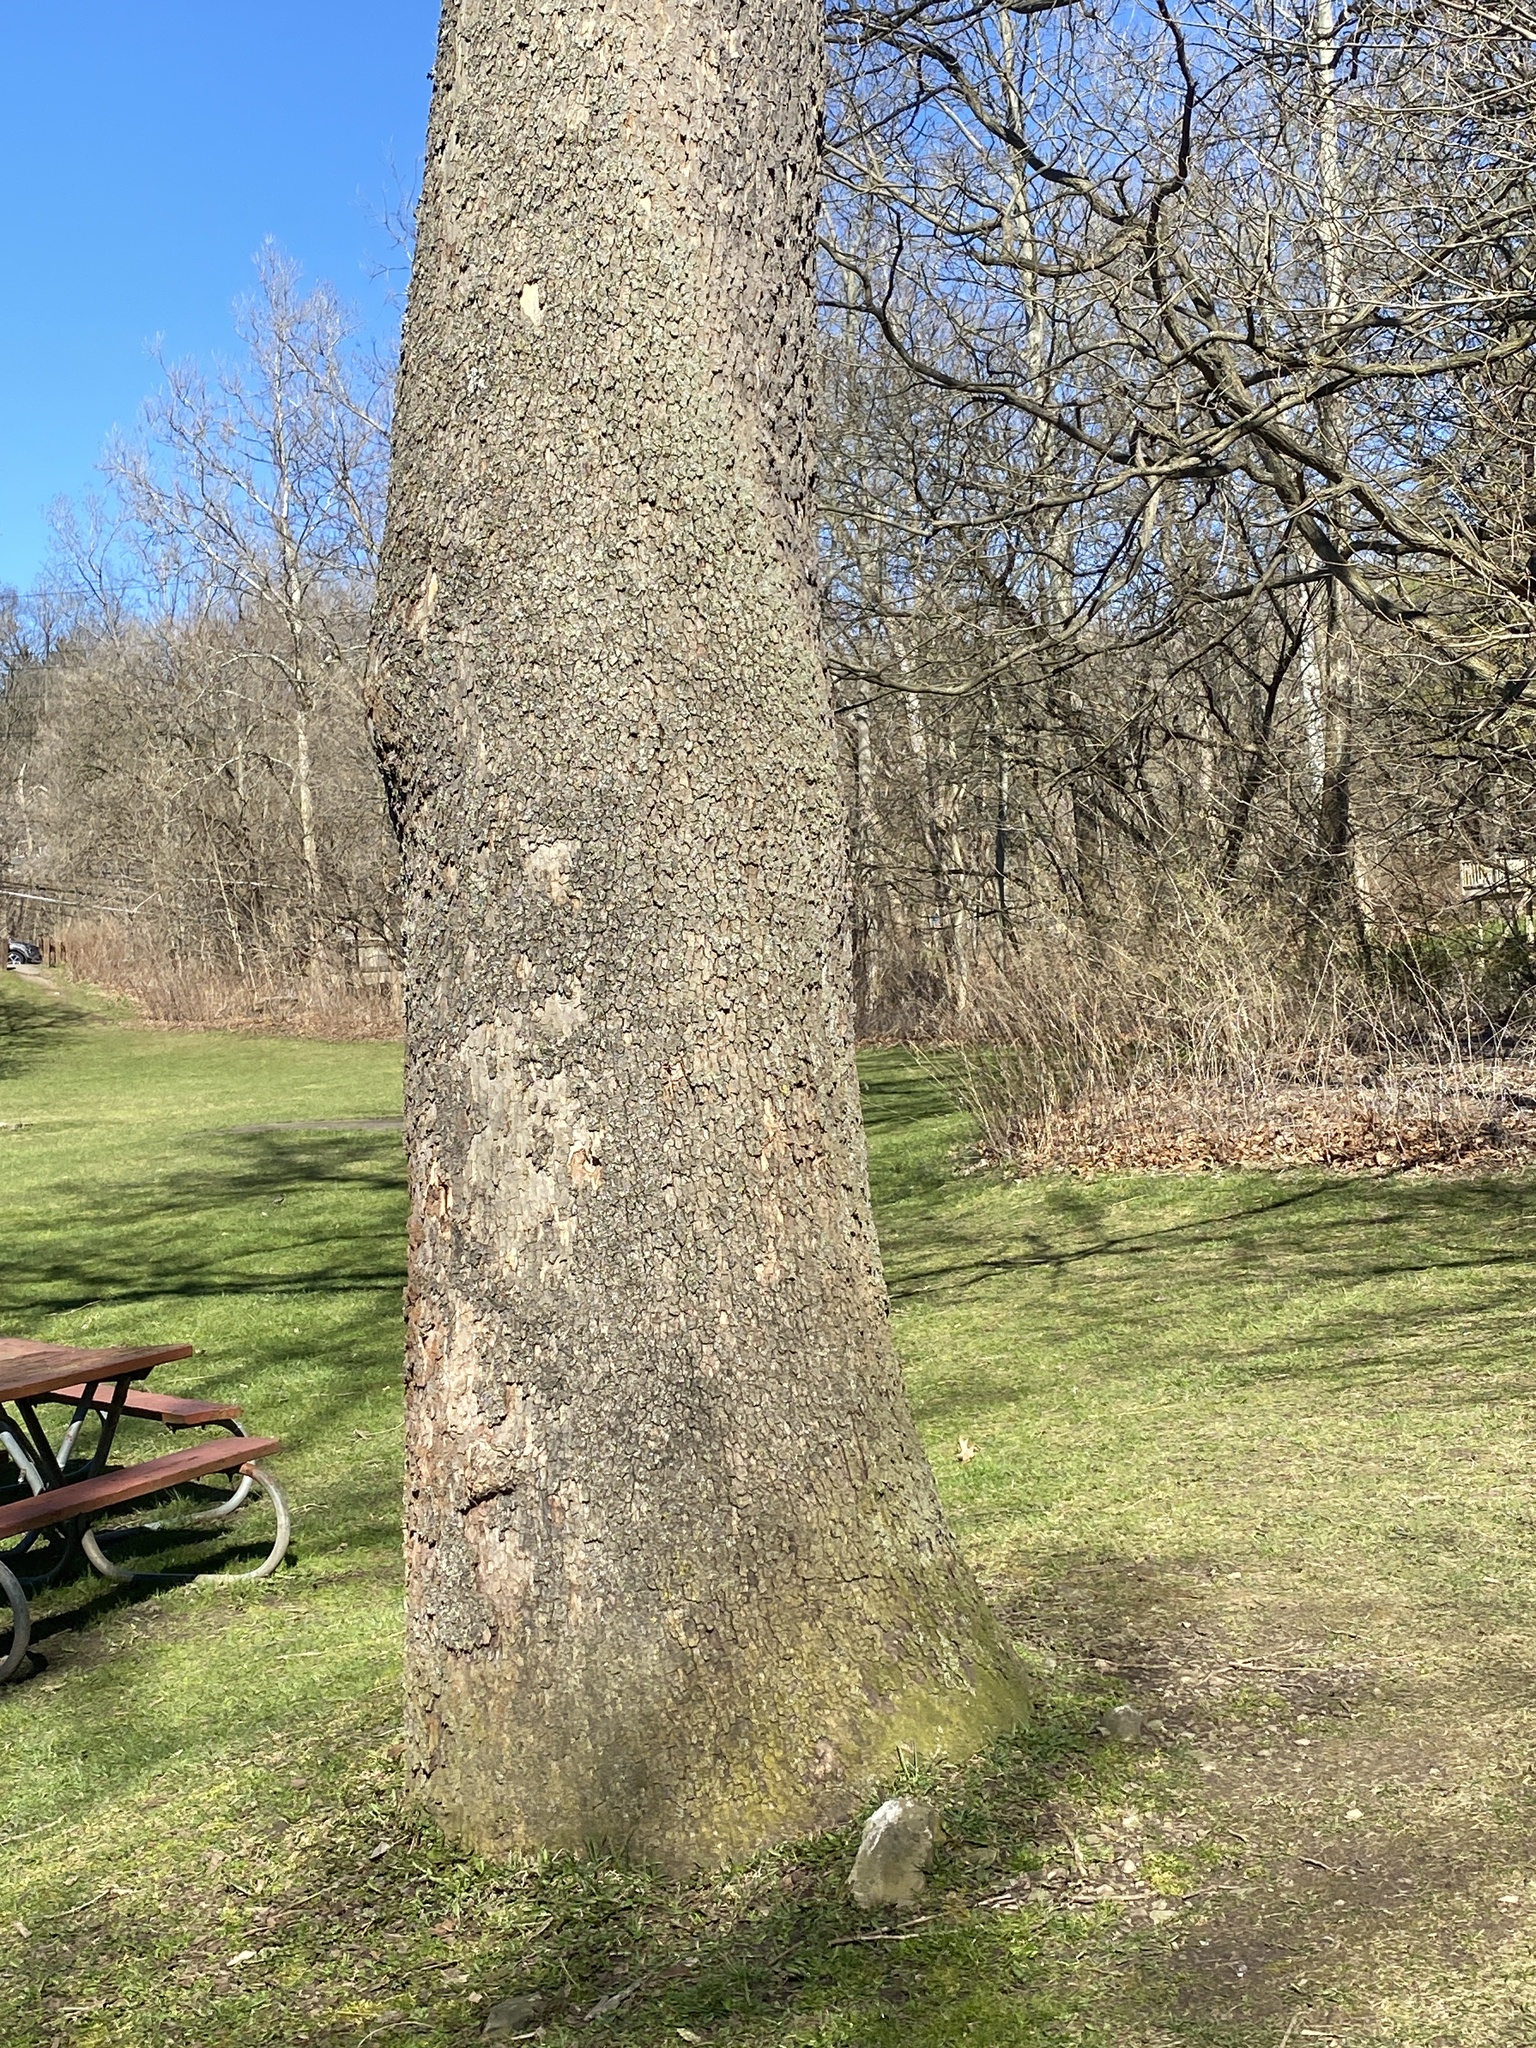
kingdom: Plantae
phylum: Tracheophyta
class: Magnoliopsida
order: Proteales
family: Platanaceae
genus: Platanus
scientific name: Platanus occidentalis
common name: American sycamore
